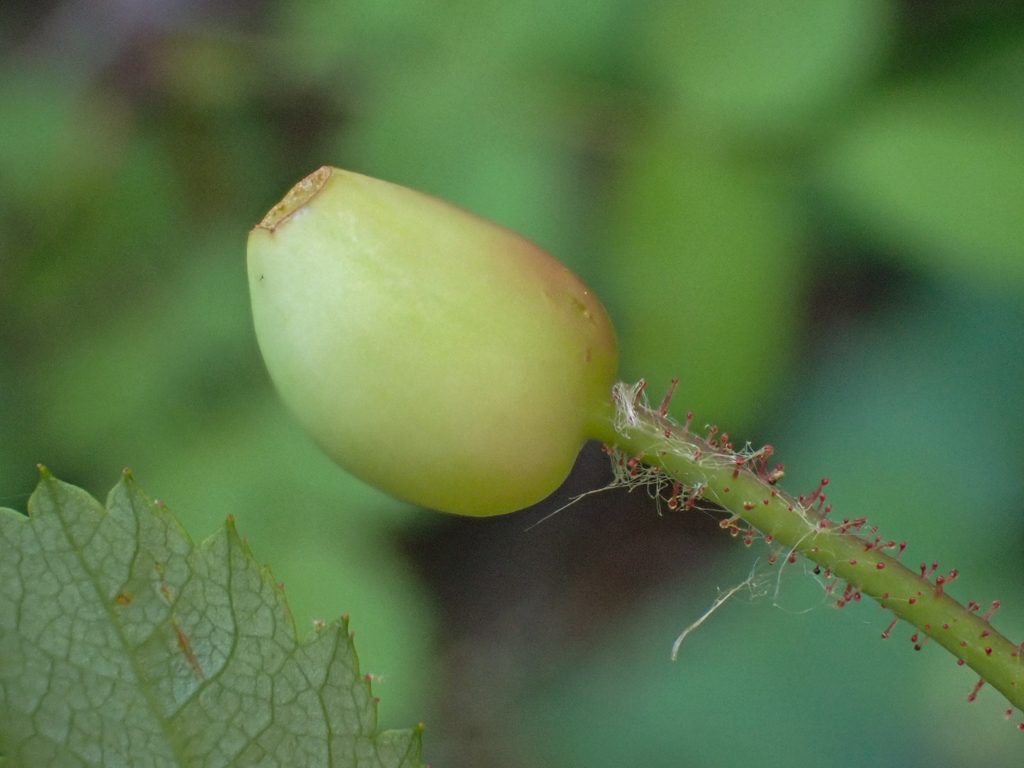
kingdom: Plantae
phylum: Tracheophyta
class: Magnoliopsida
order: Rosales
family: Rosaceae
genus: Rosa
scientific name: Rosa gymnocarpa
